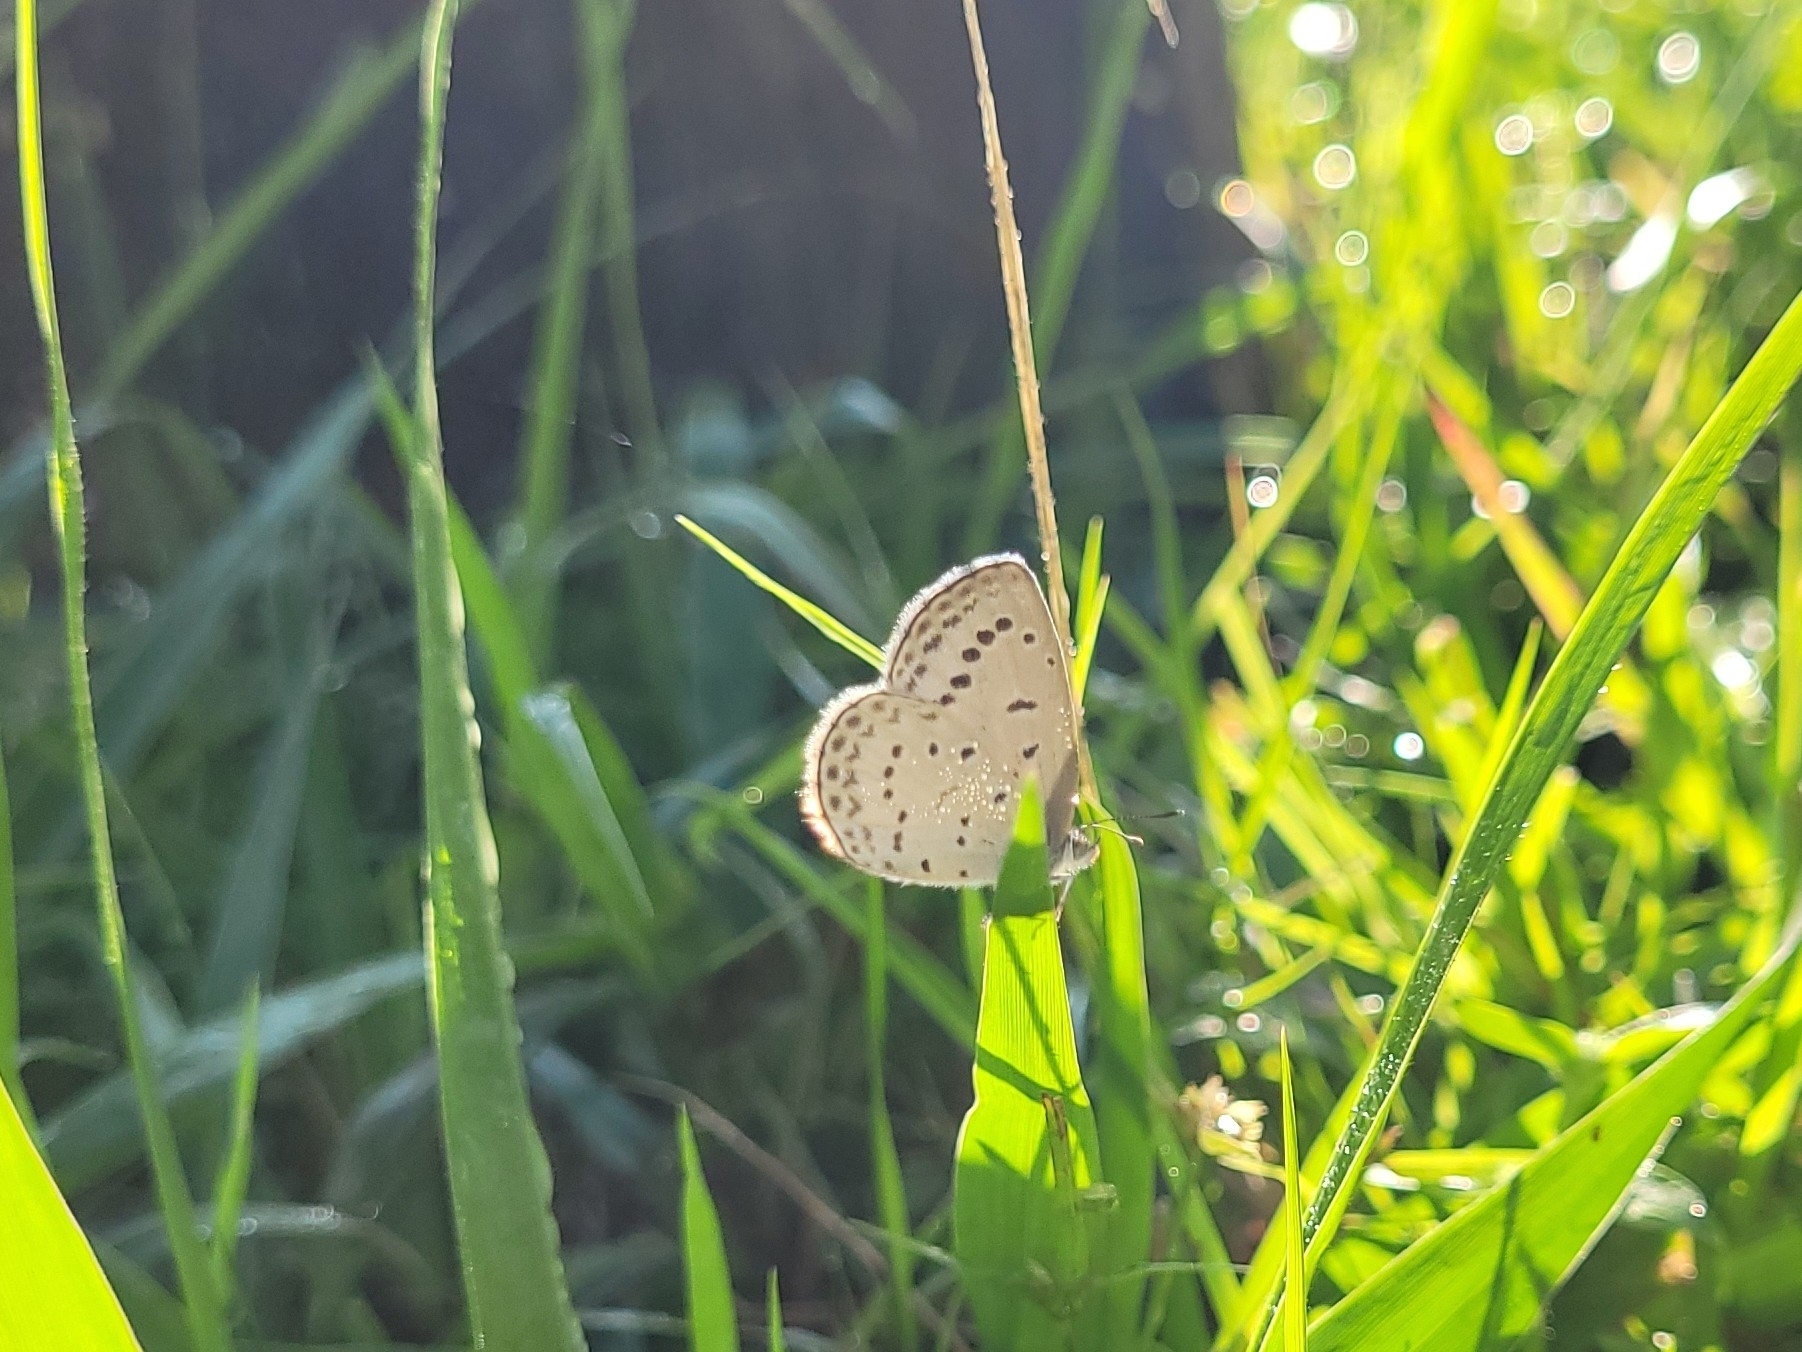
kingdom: Animalia
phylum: Arthropoda
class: Insecta
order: Lepidoptera
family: Lycaenidae
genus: Pseudozizeeria
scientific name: Pseudozizeeria maha
